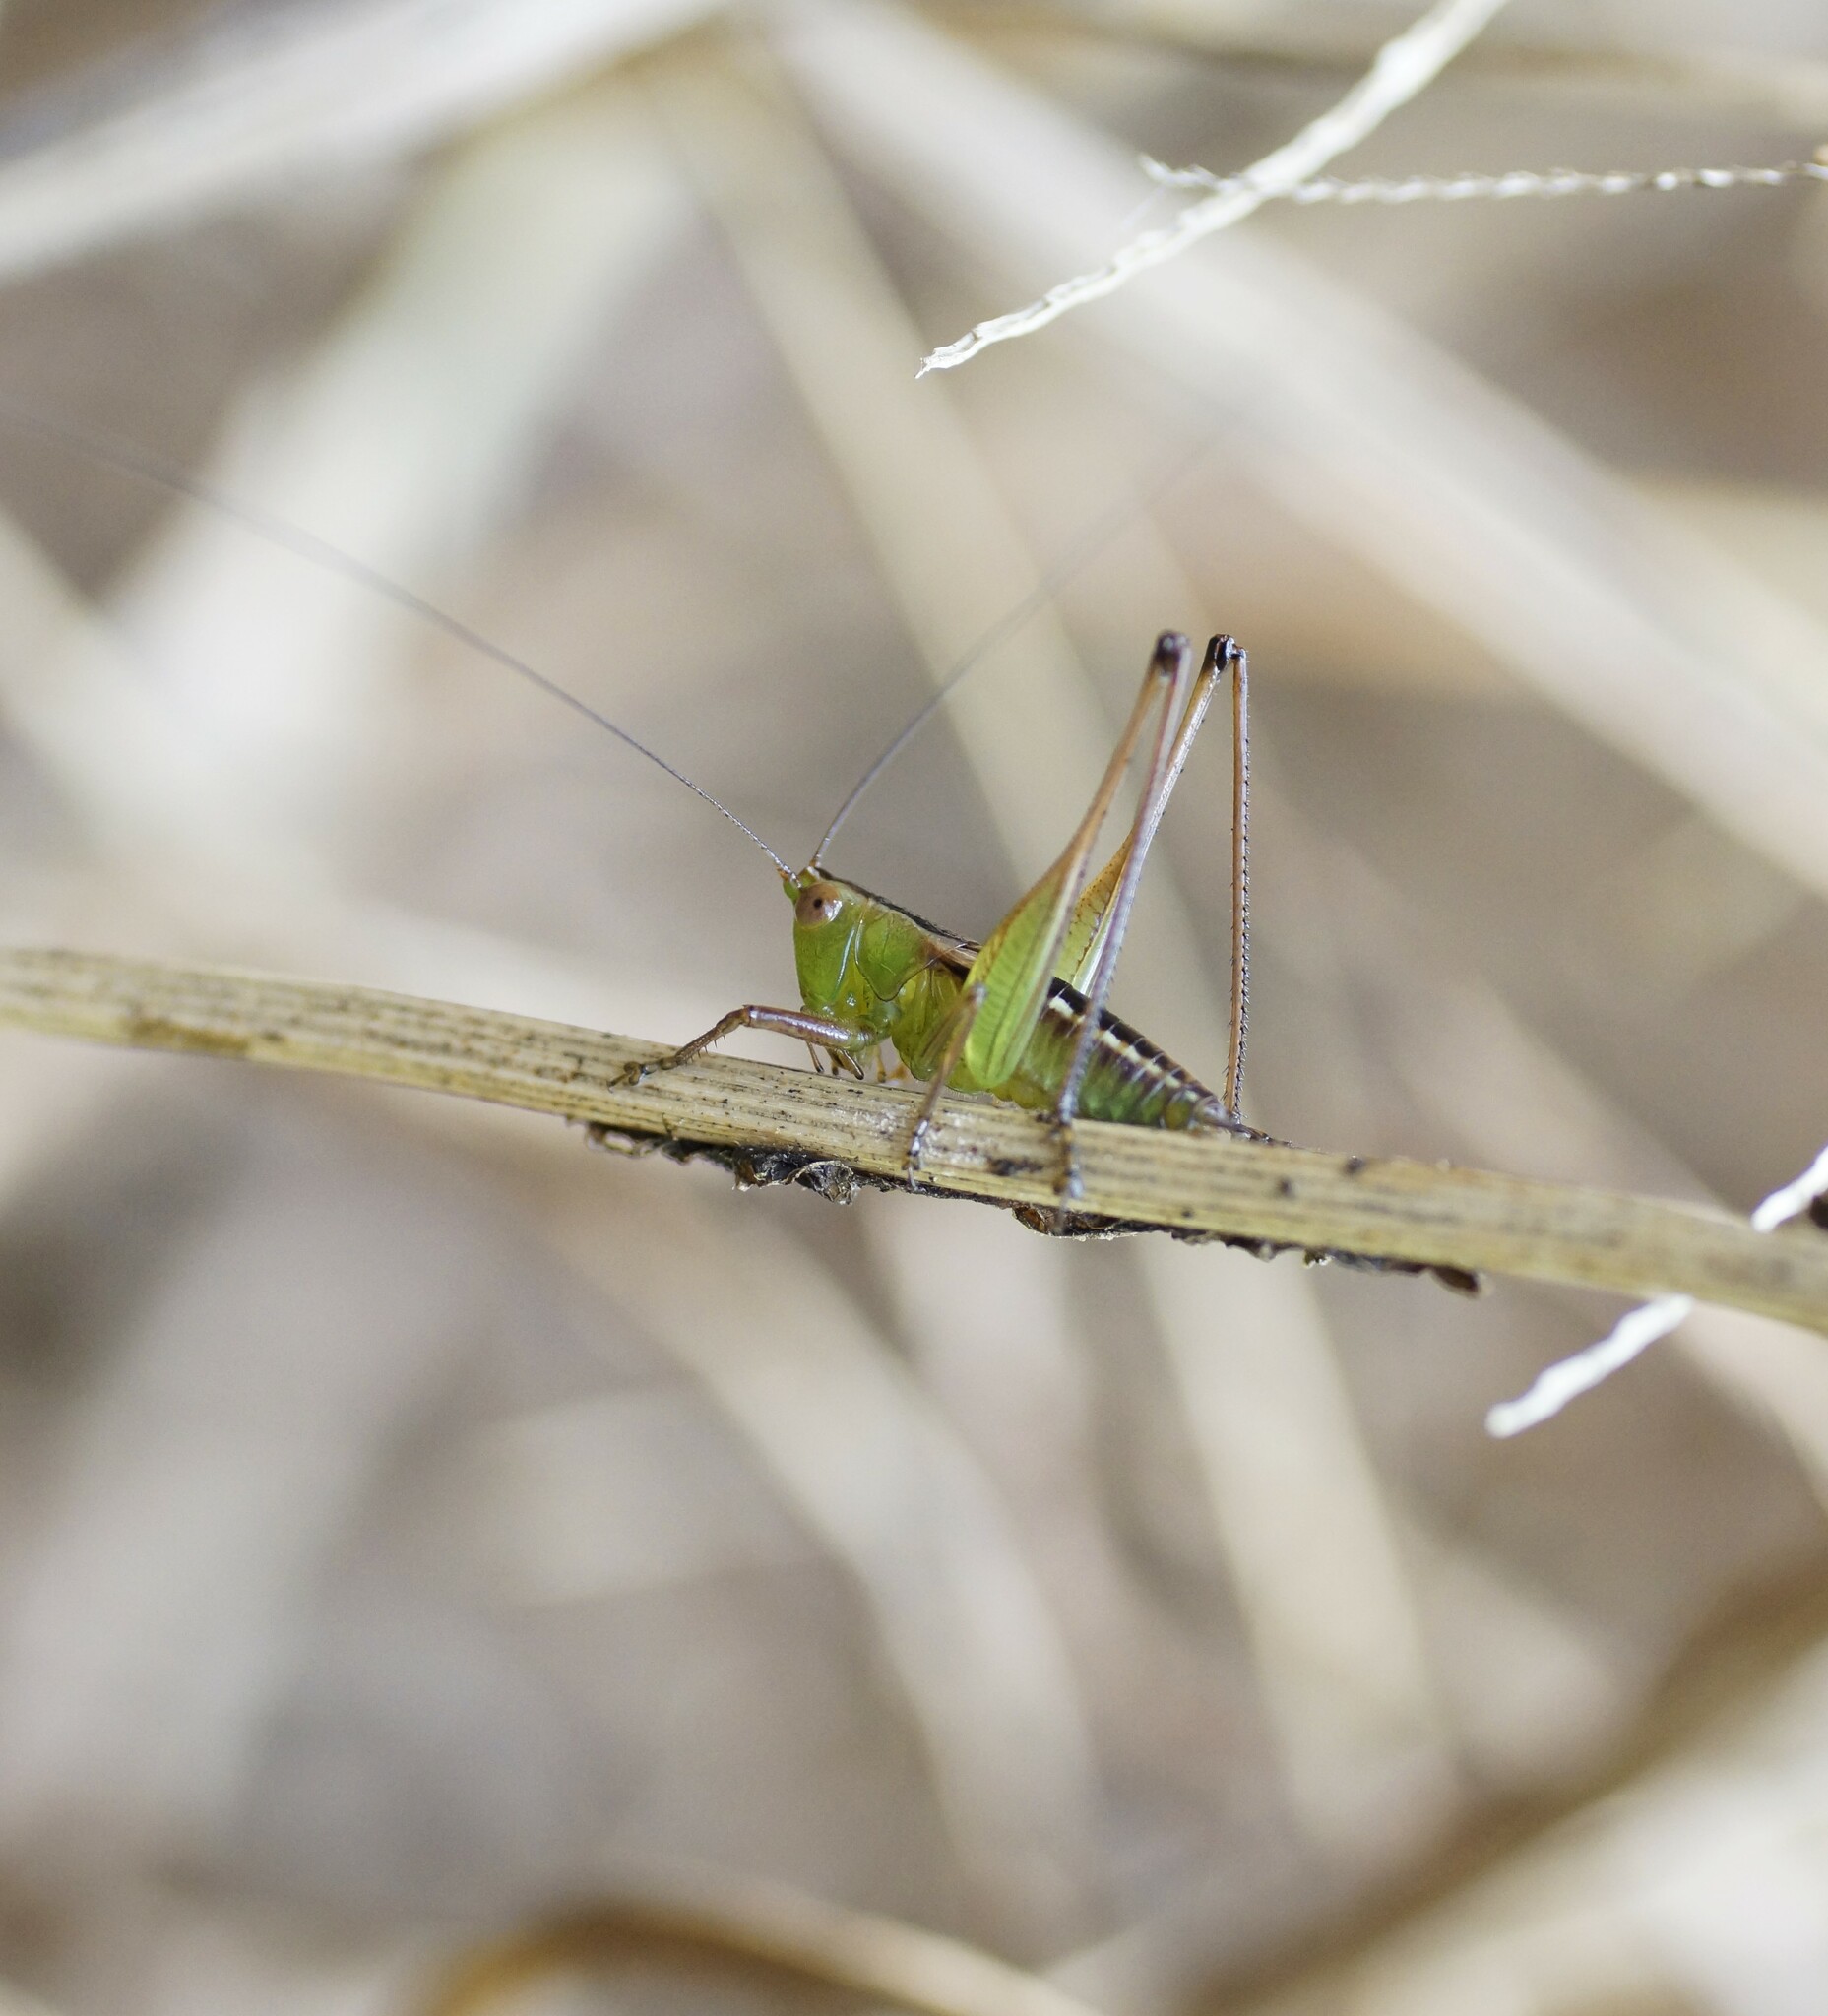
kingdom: Animalia
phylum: Arthropoda
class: Insecta
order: Orthoptera
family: Tettigoniidae
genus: Conocephalus
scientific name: Conocephalus semivittatus
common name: Blackish meadow katydid
